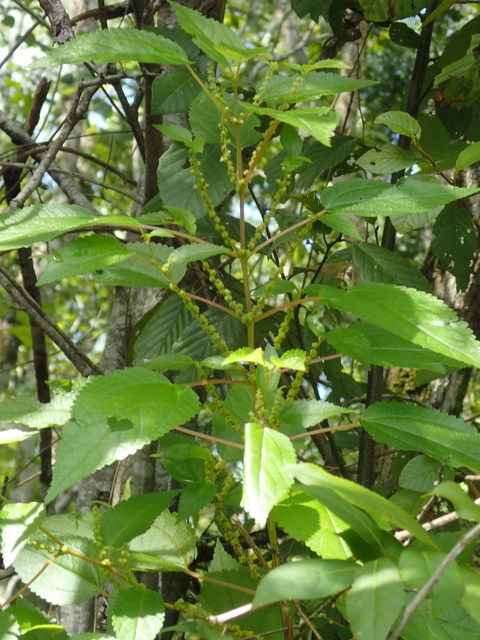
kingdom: Plantae
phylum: Tracheophyta
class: Magnoliopsida
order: Rosales
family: Urticaceae
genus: Boehmeria
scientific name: Boehmeria cylindrica
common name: Bog-hemp
